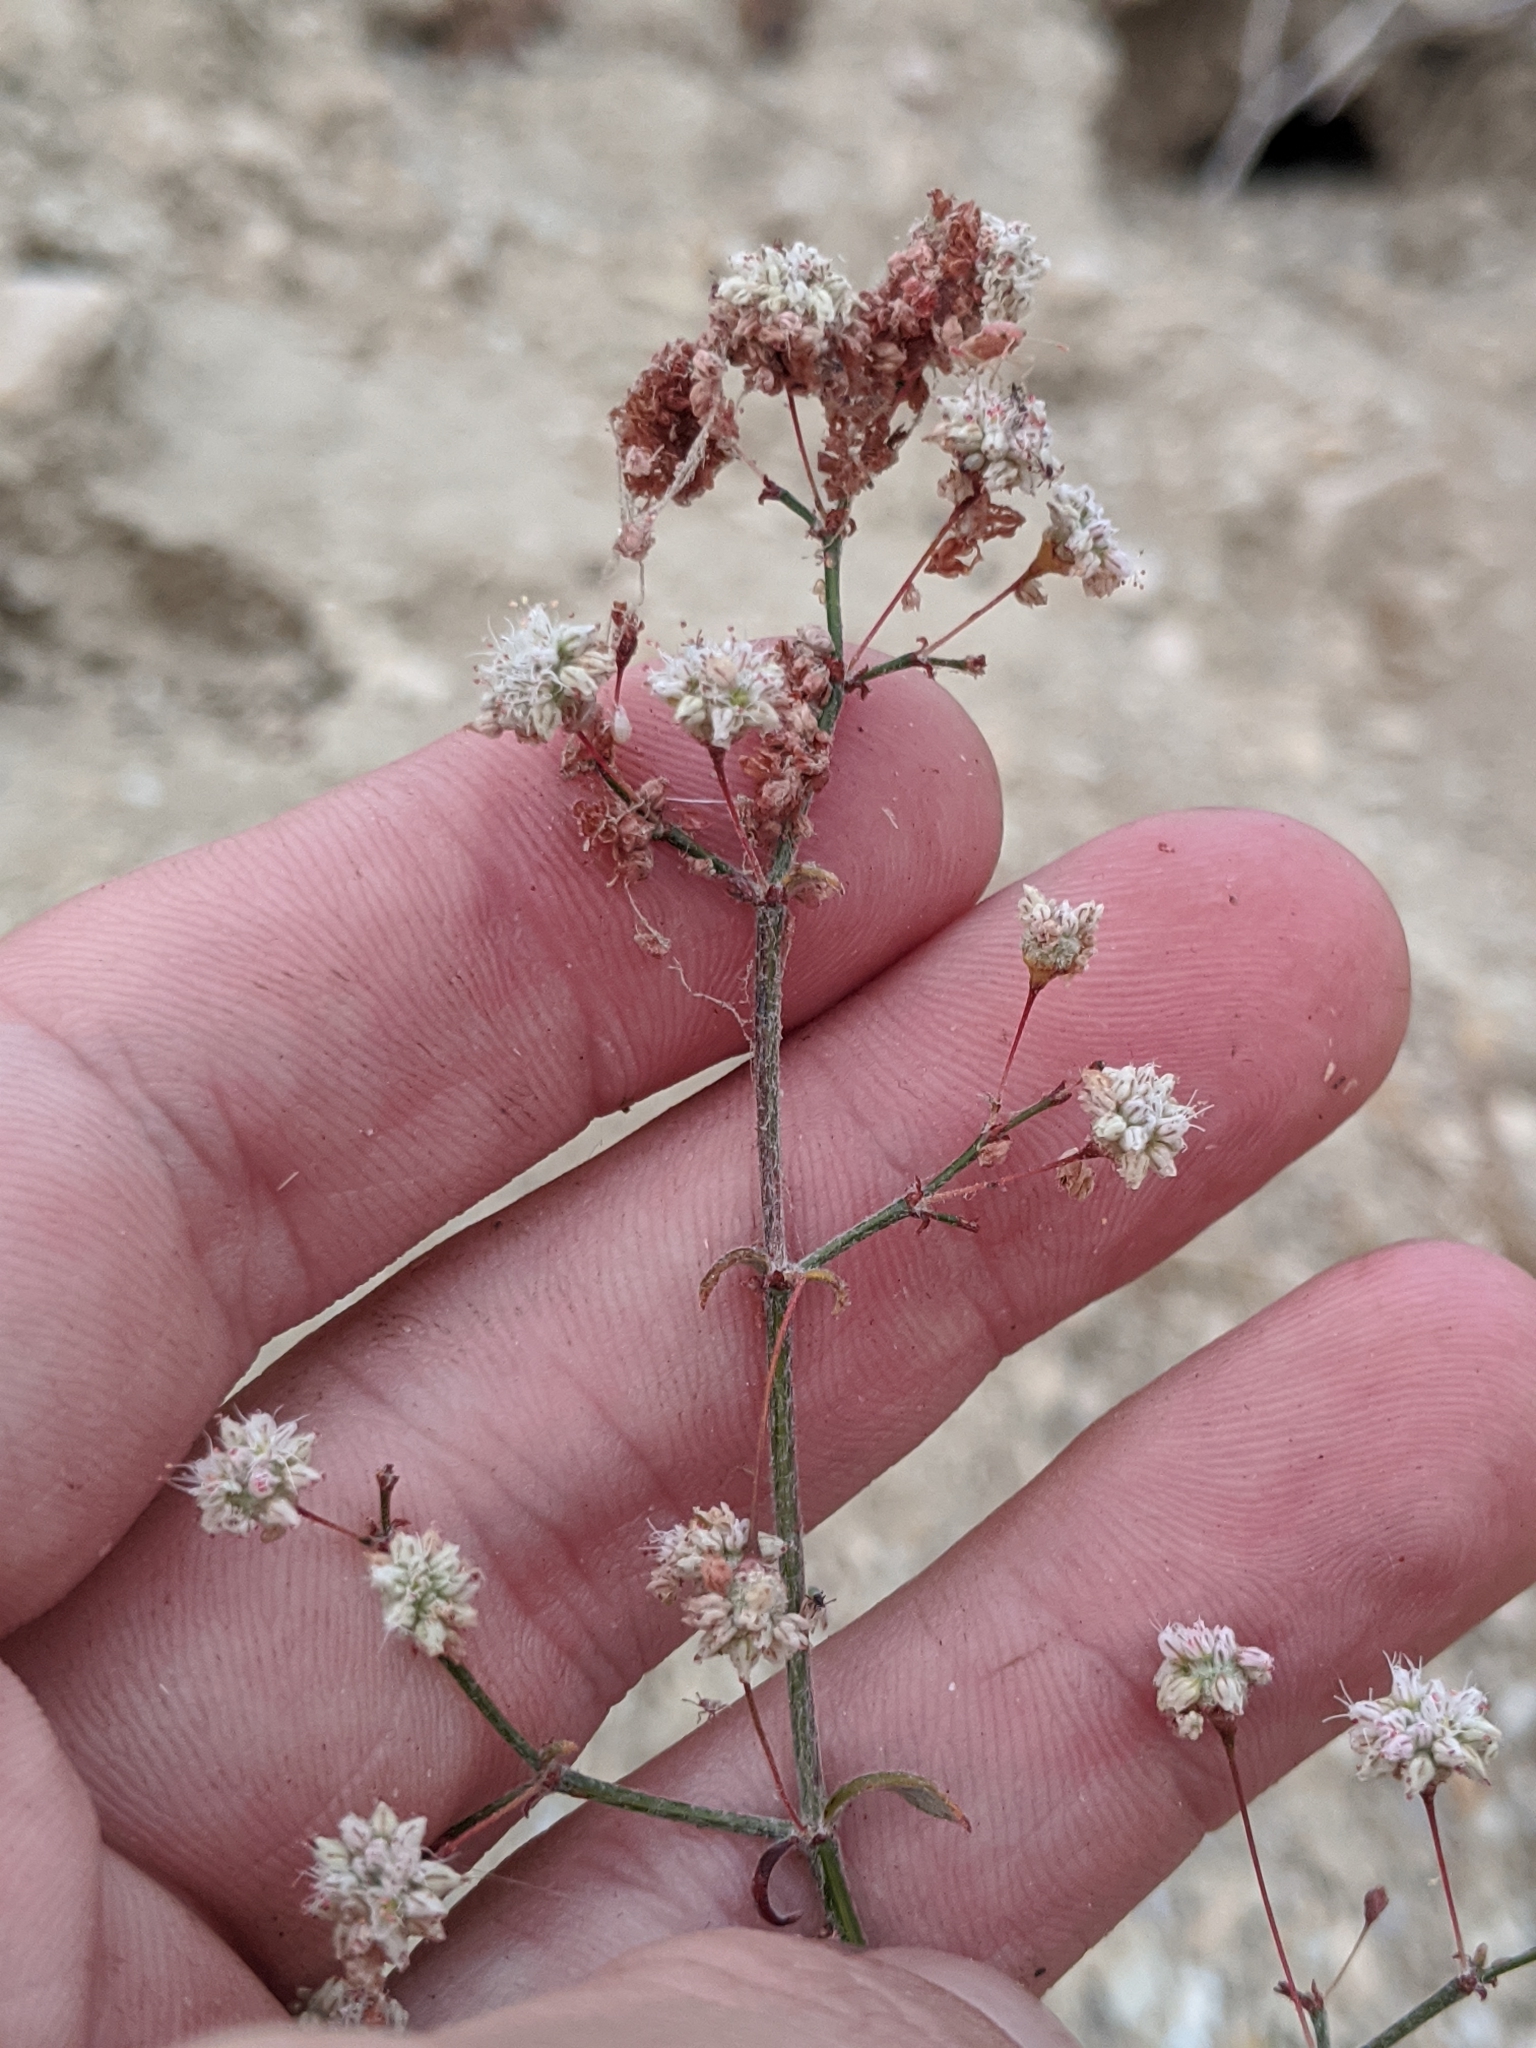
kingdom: Plantae
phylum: Tracheophyta
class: Magnoliopsida
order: Caryophyllales
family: Polygonaceae
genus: Eriogonum
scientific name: Eriogonum angulosum
